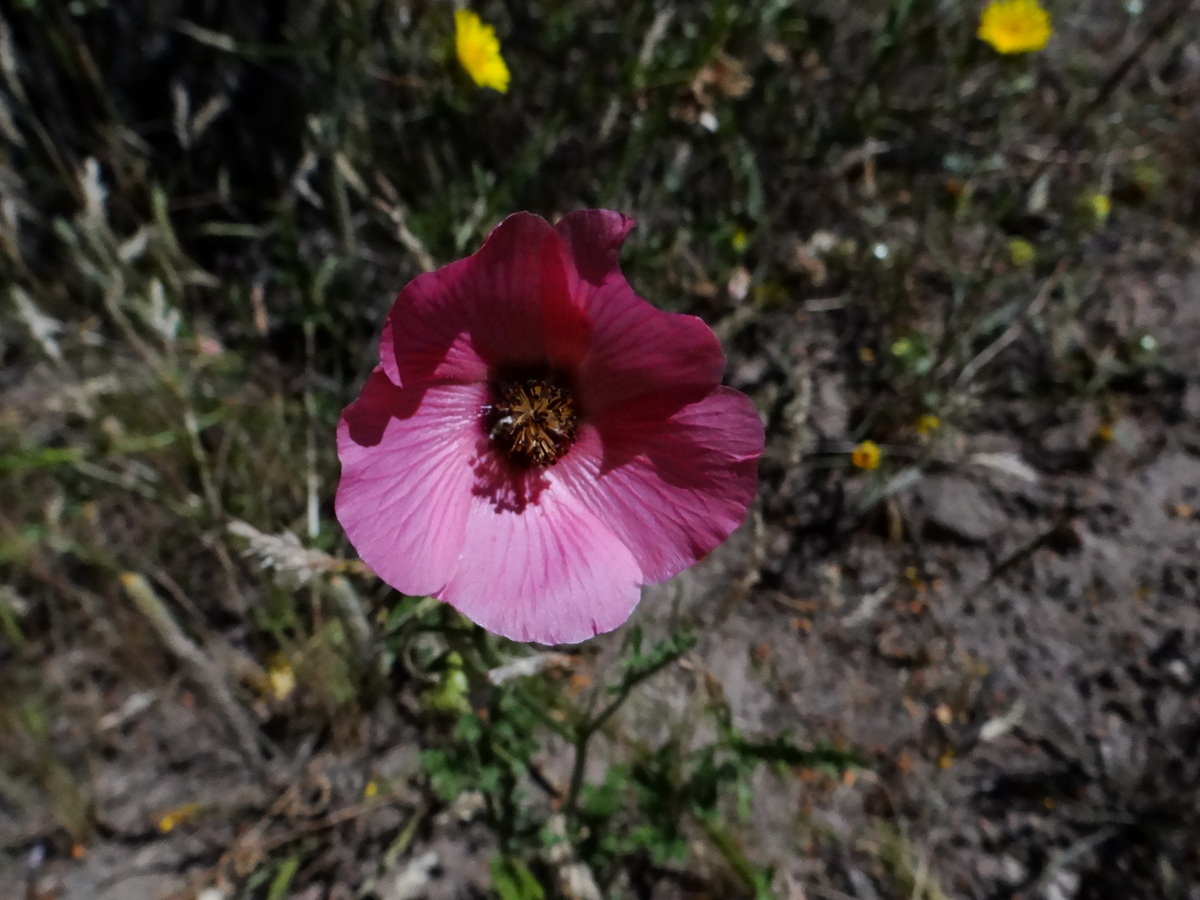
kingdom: Plantae
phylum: Tracheophyta
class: Magnoliopsida
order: Malvales
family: Malvaceae
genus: Lecanophora
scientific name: Lecanophora heterophylla
